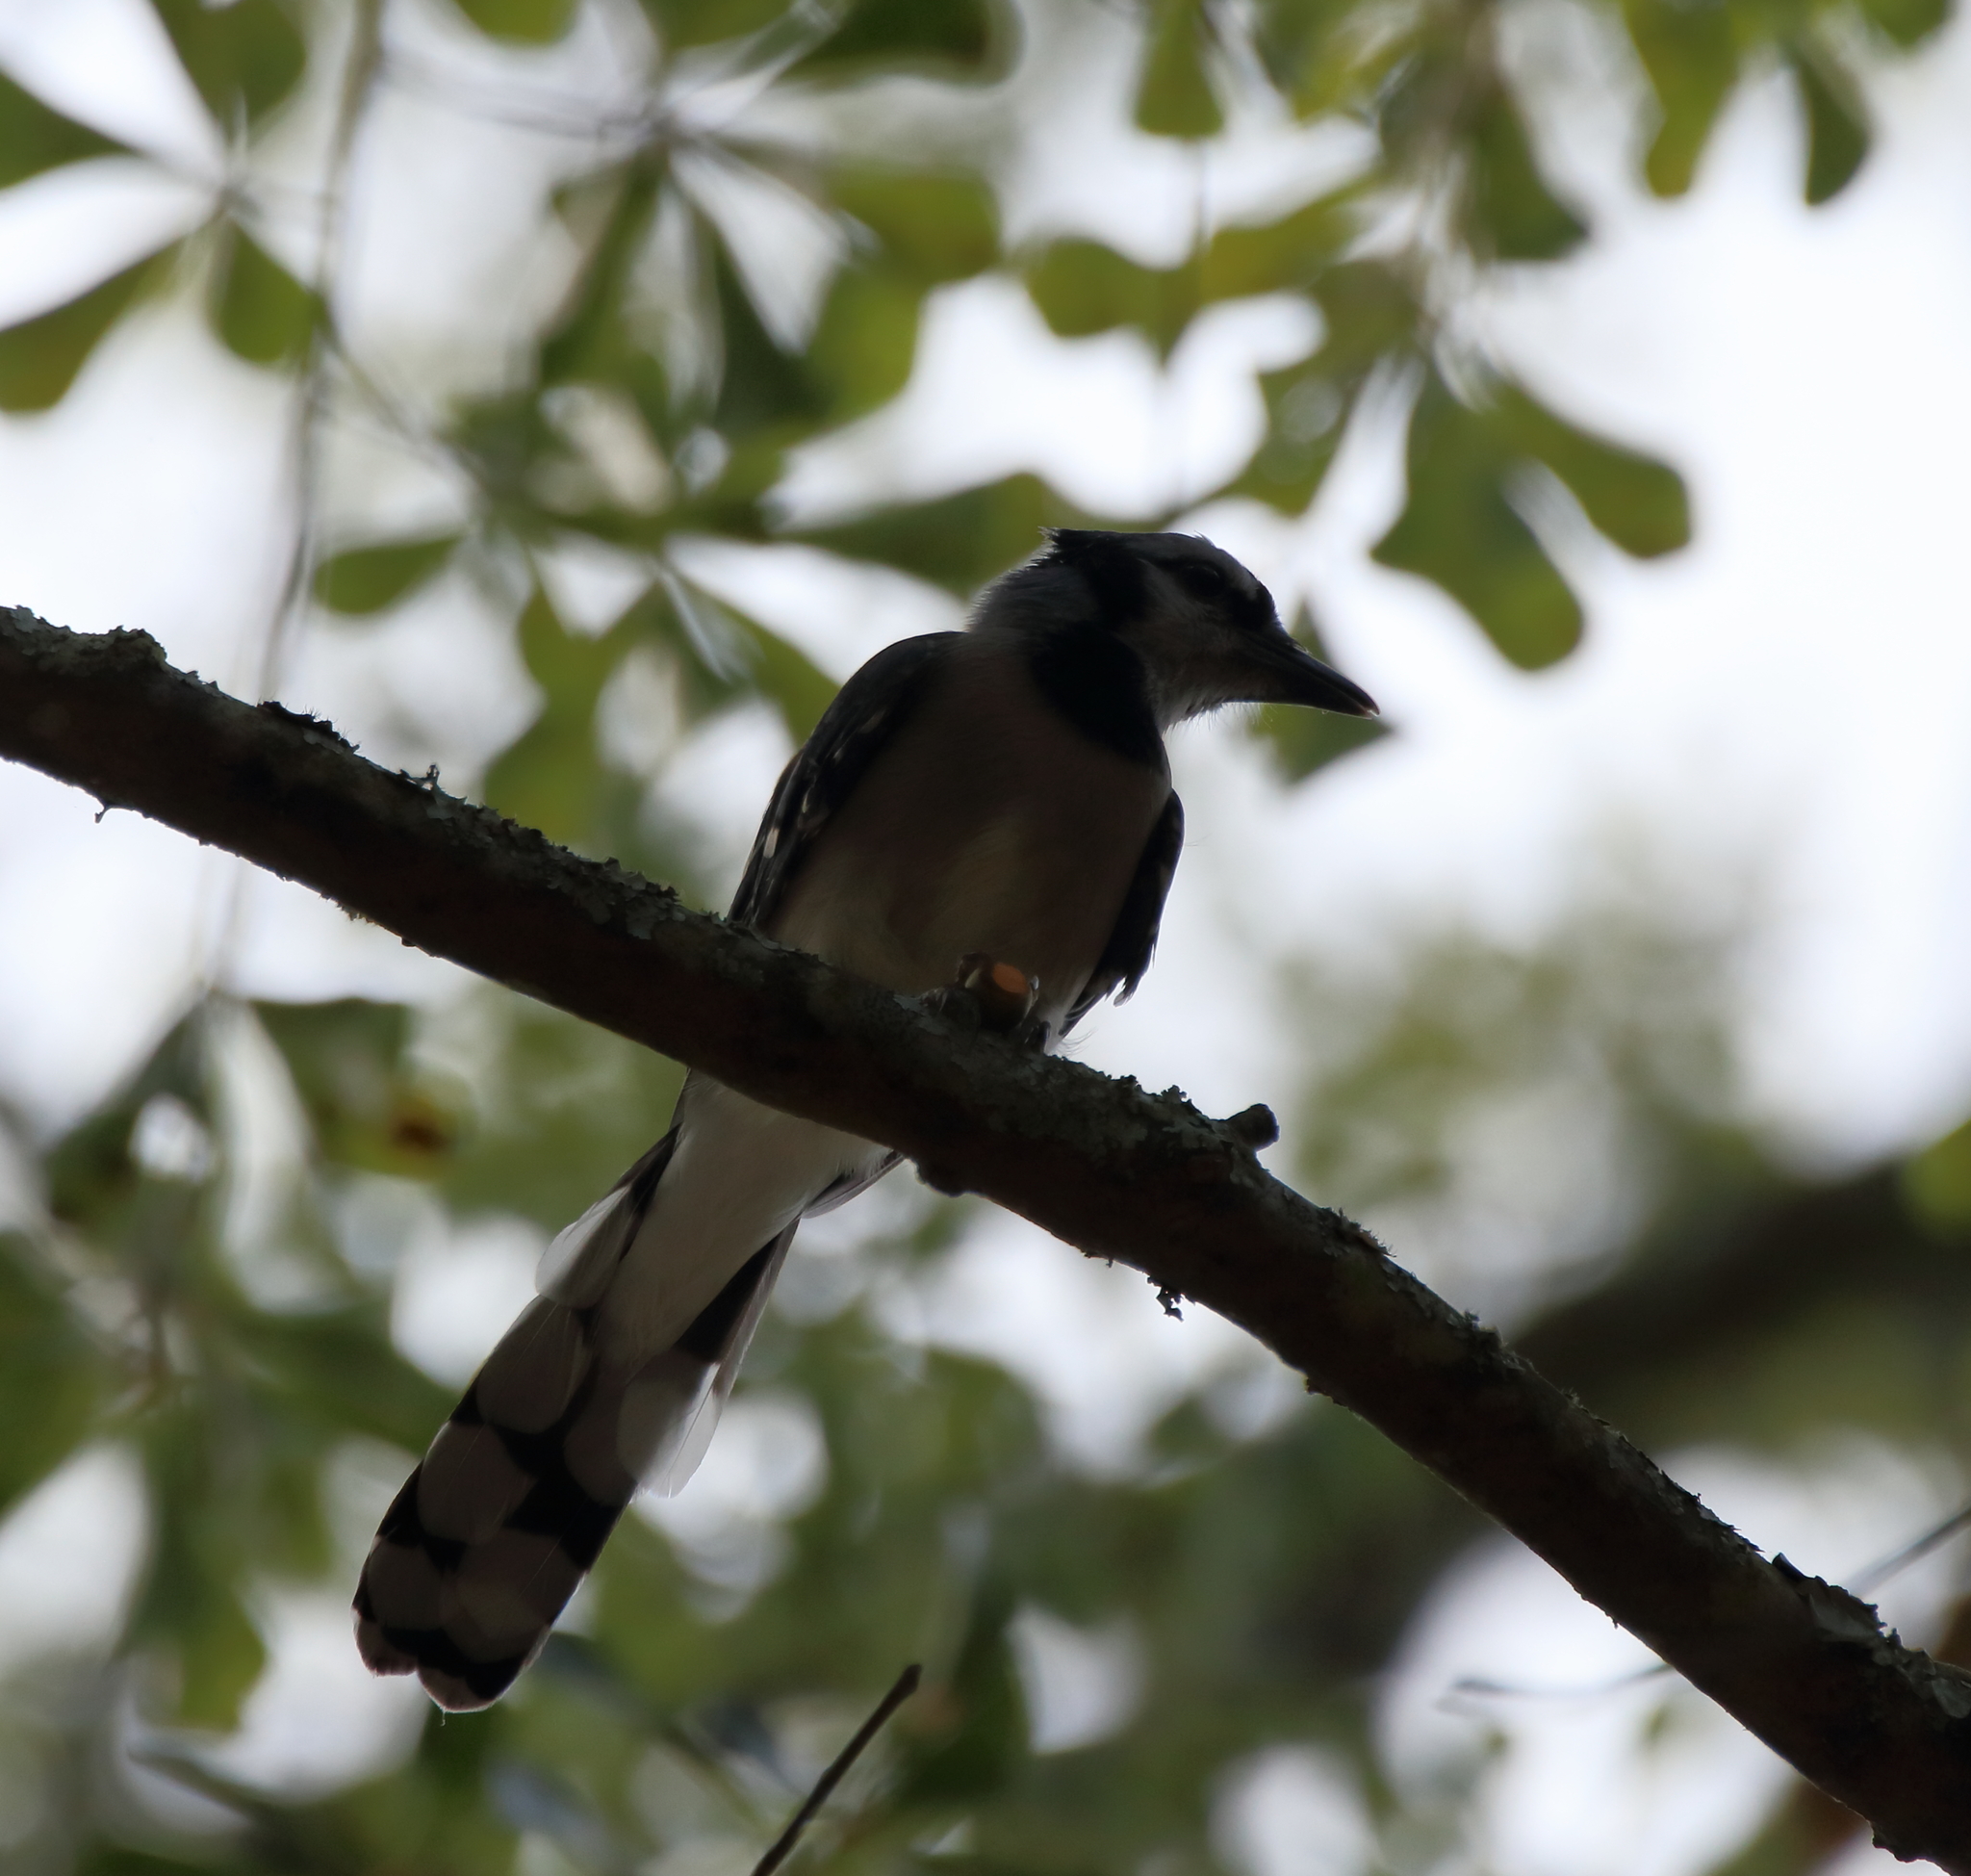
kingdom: Animalia
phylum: Chordata
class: Aves
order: Passeriformes
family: Corvidae
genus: Cyanocitta
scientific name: Cyanocitta cristata
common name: Blue jay
